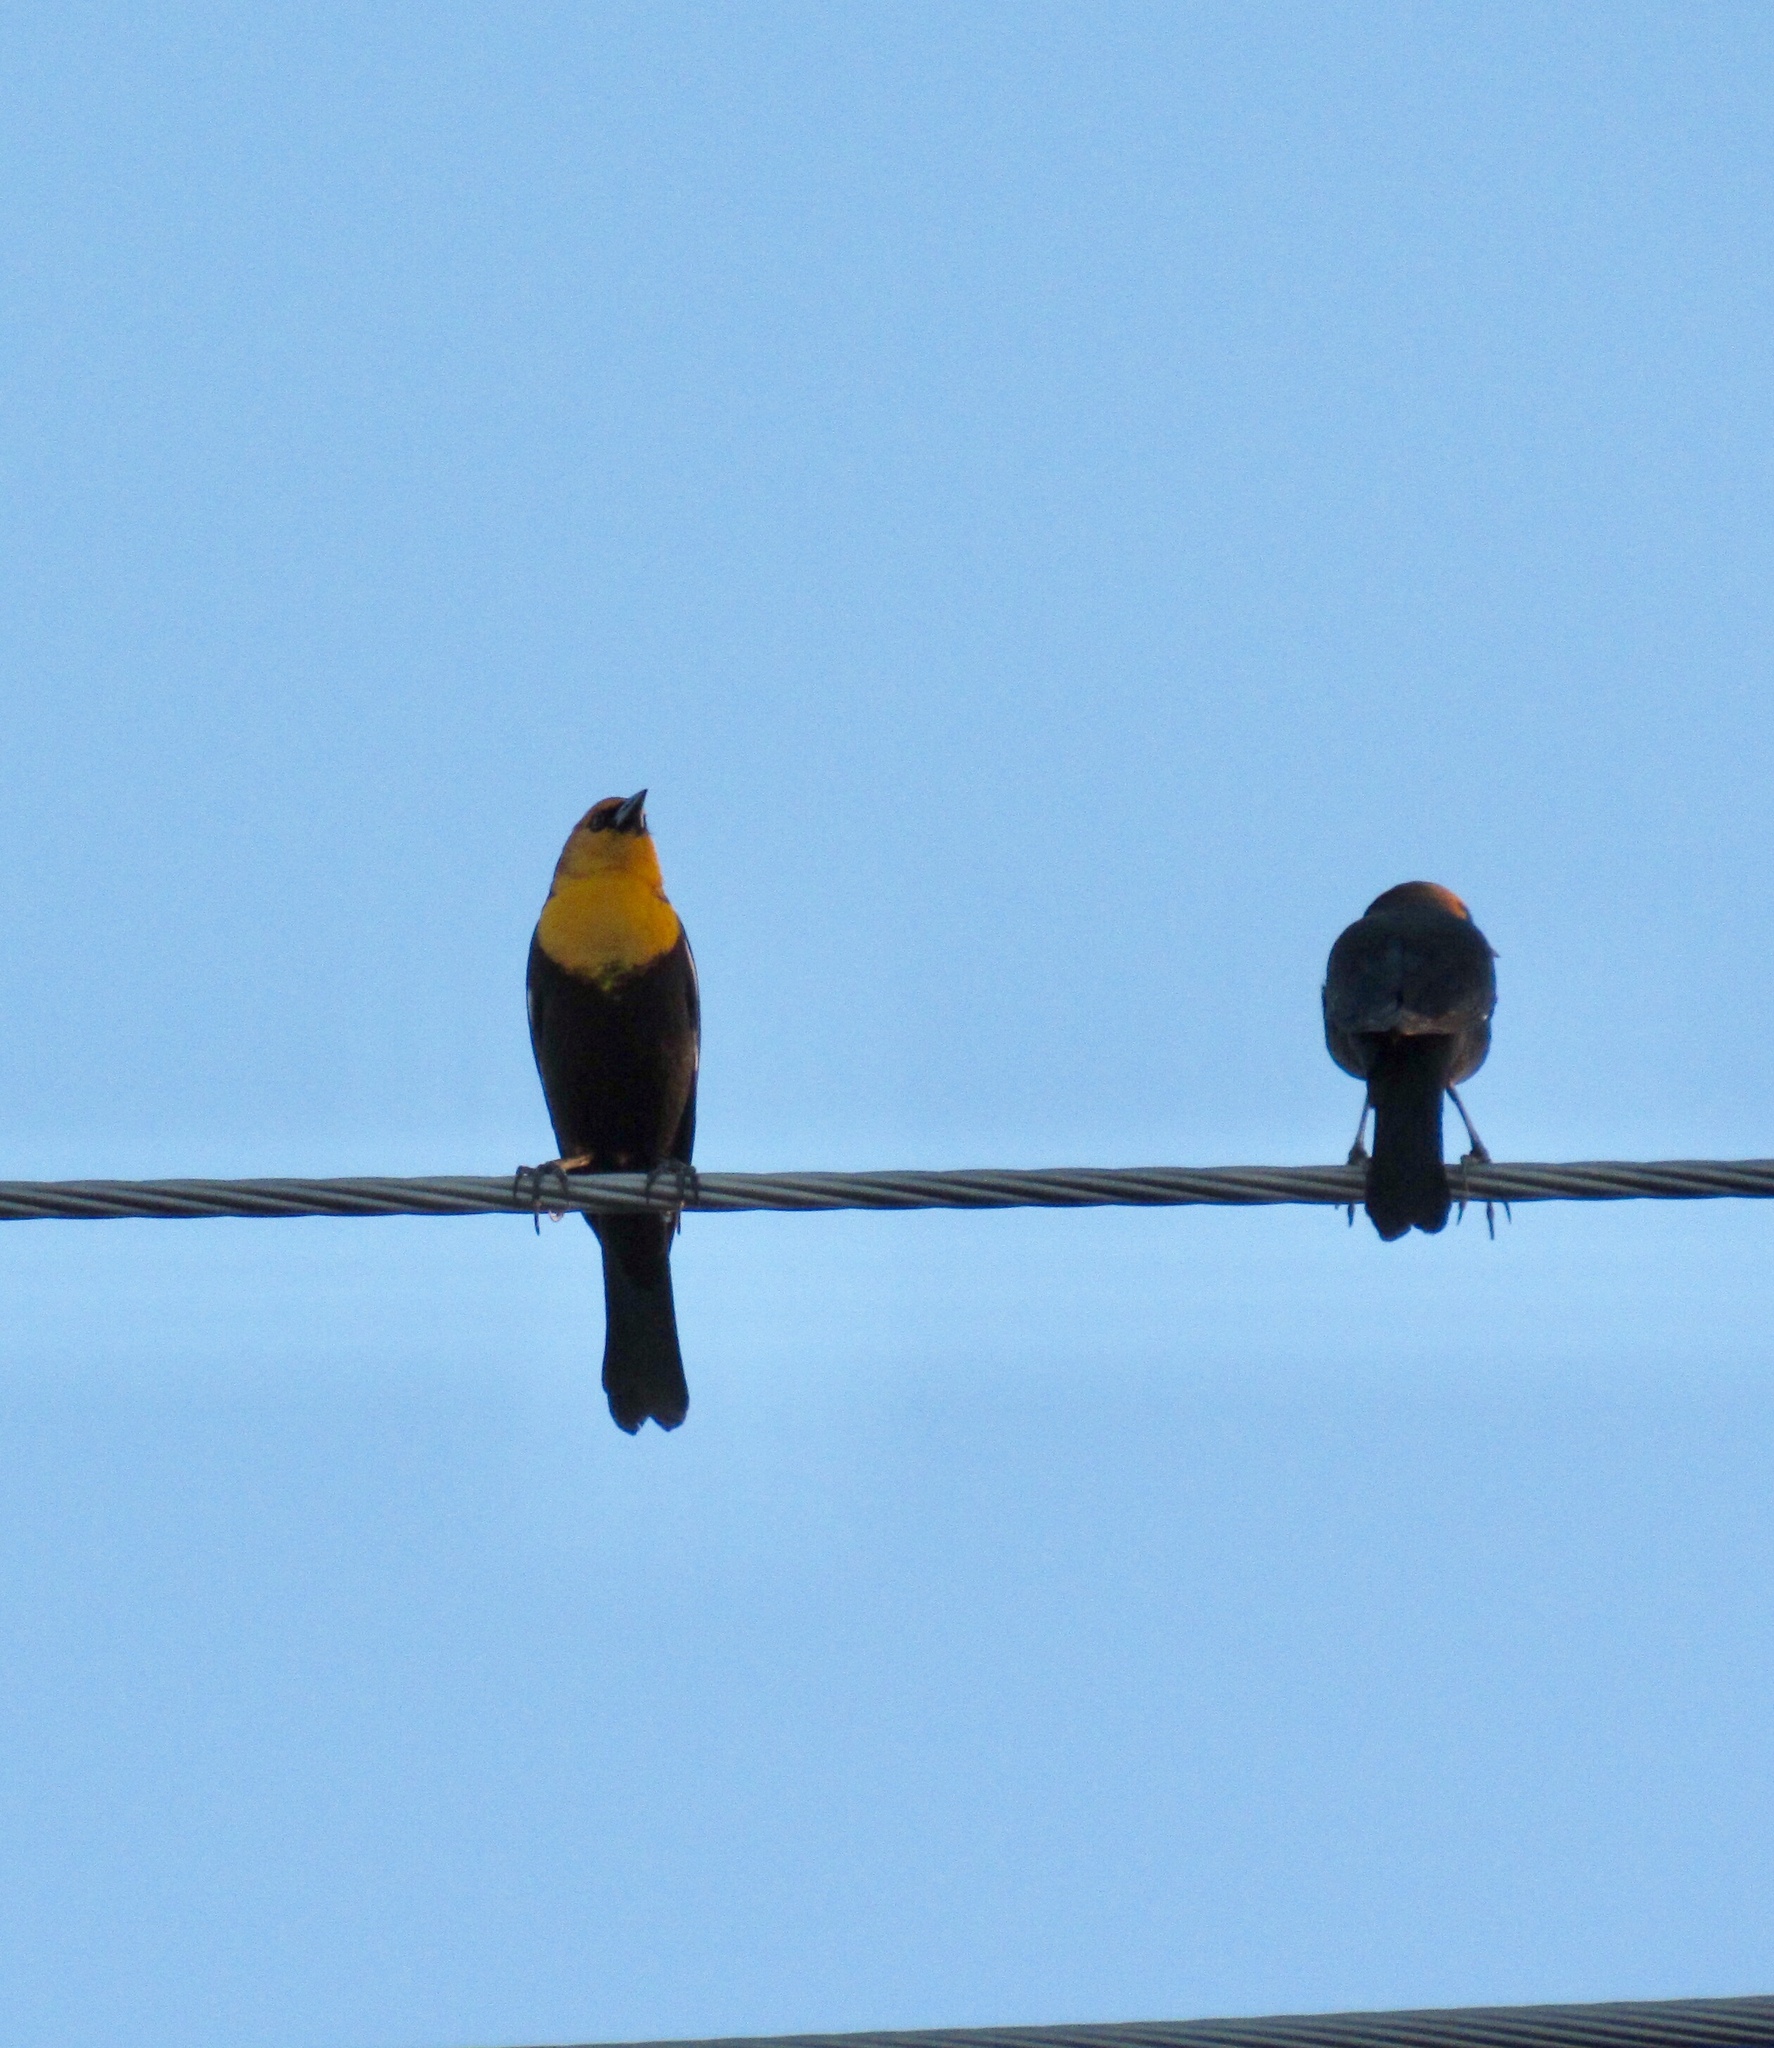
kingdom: Animalia
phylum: Chordata
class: Aves
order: Passeriformes
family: Icteridae
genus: Xanthocephalus
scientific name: Xanthocephalus xanthocephalus
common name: Yellow-headed blackbird
